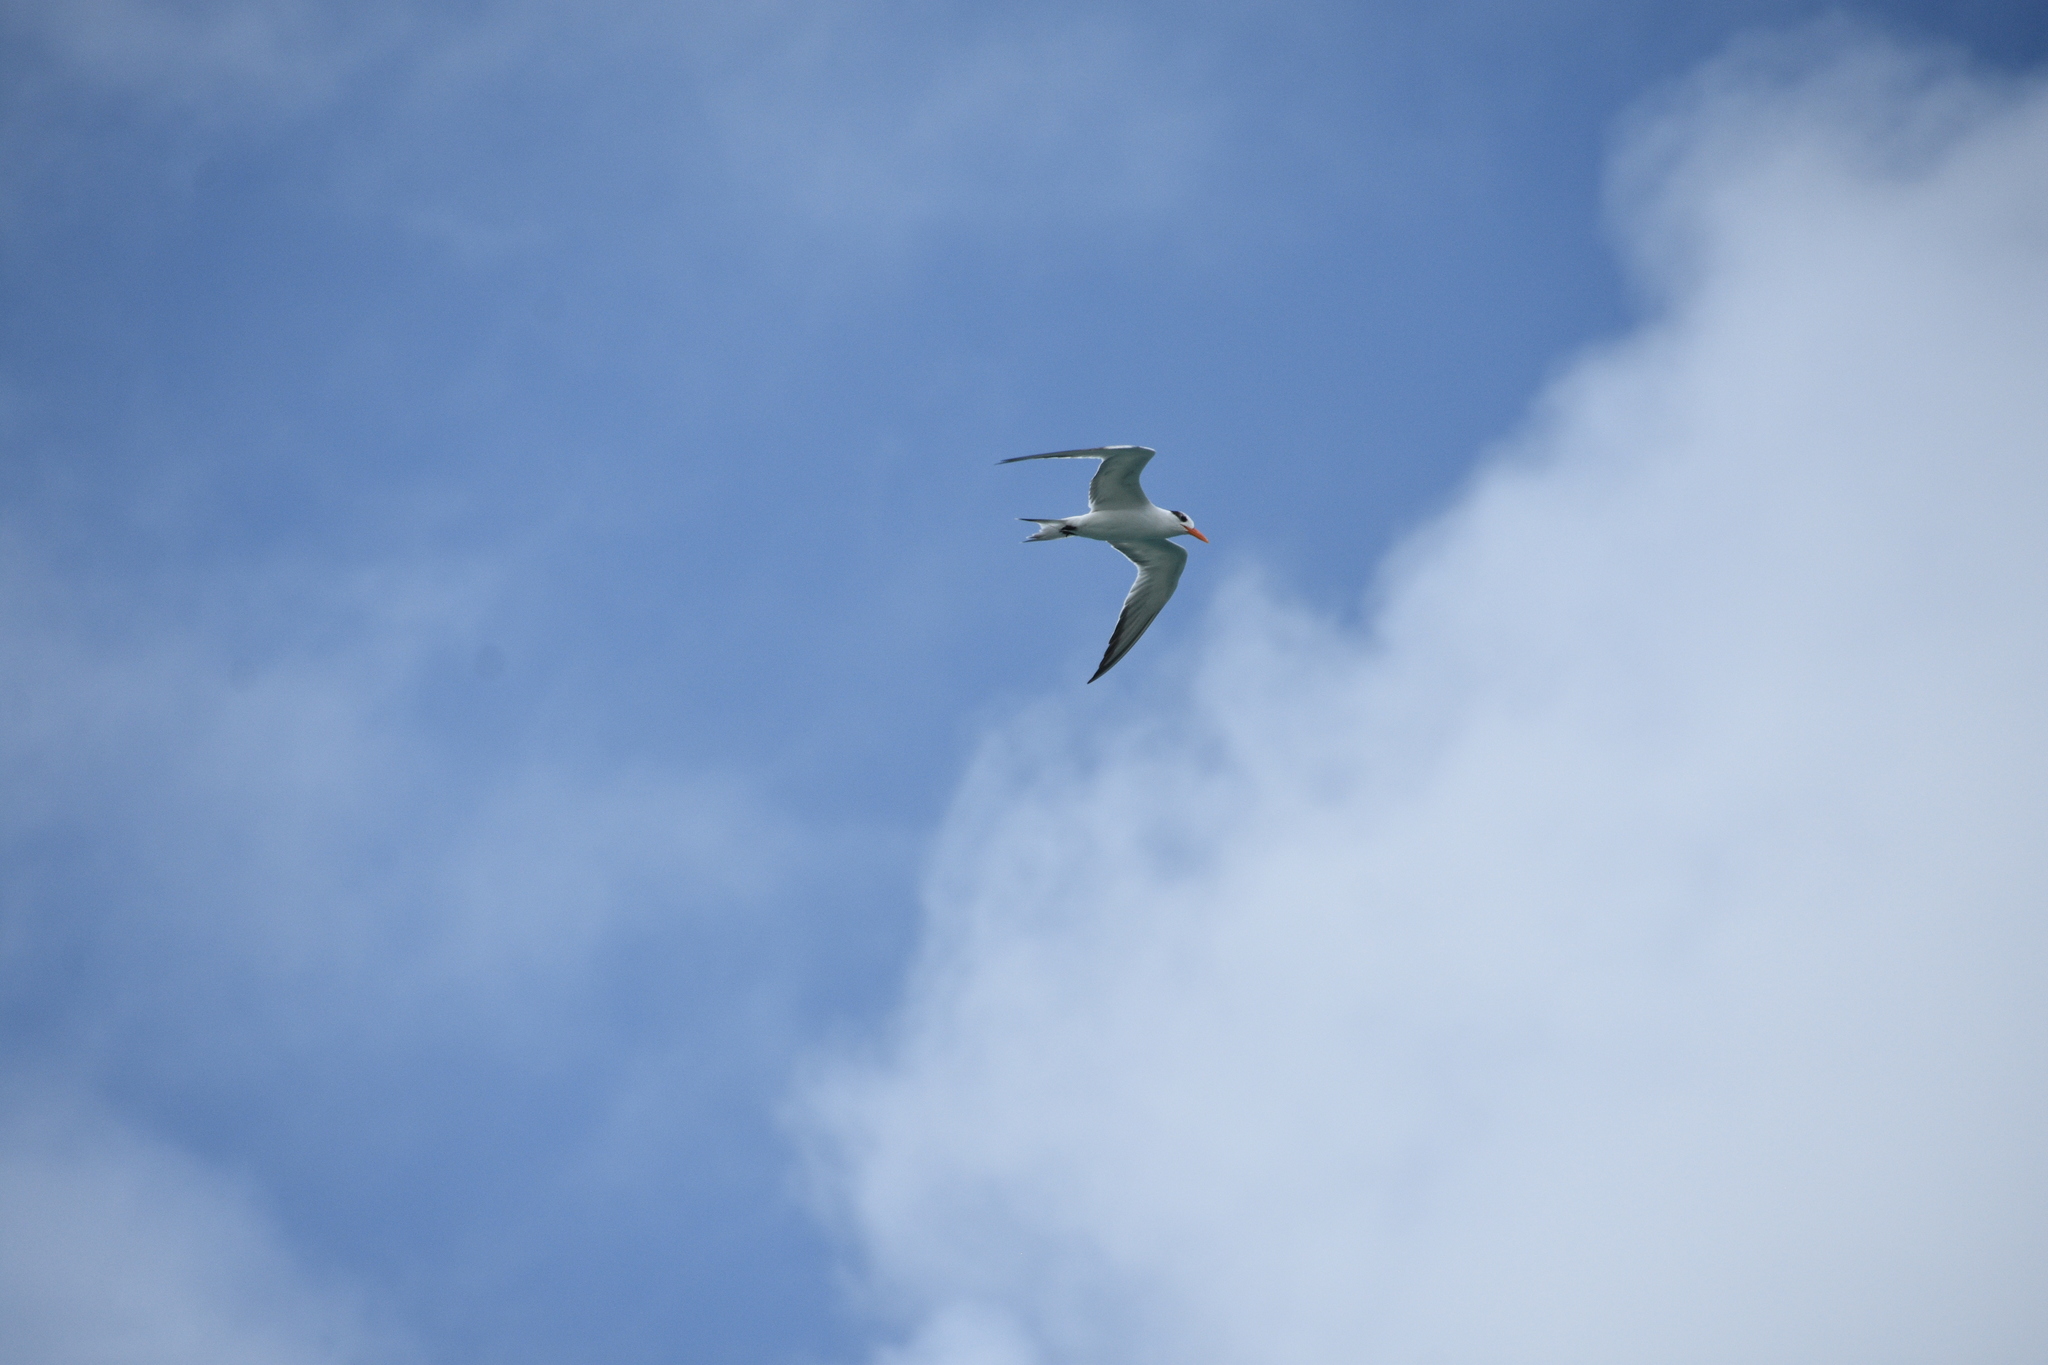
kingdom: Animalia
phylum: Chordata
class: Aves
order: Charadriiformes
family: Laridae
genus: Thalasseus
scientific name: Thalasseus maximus
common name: Royal tern
